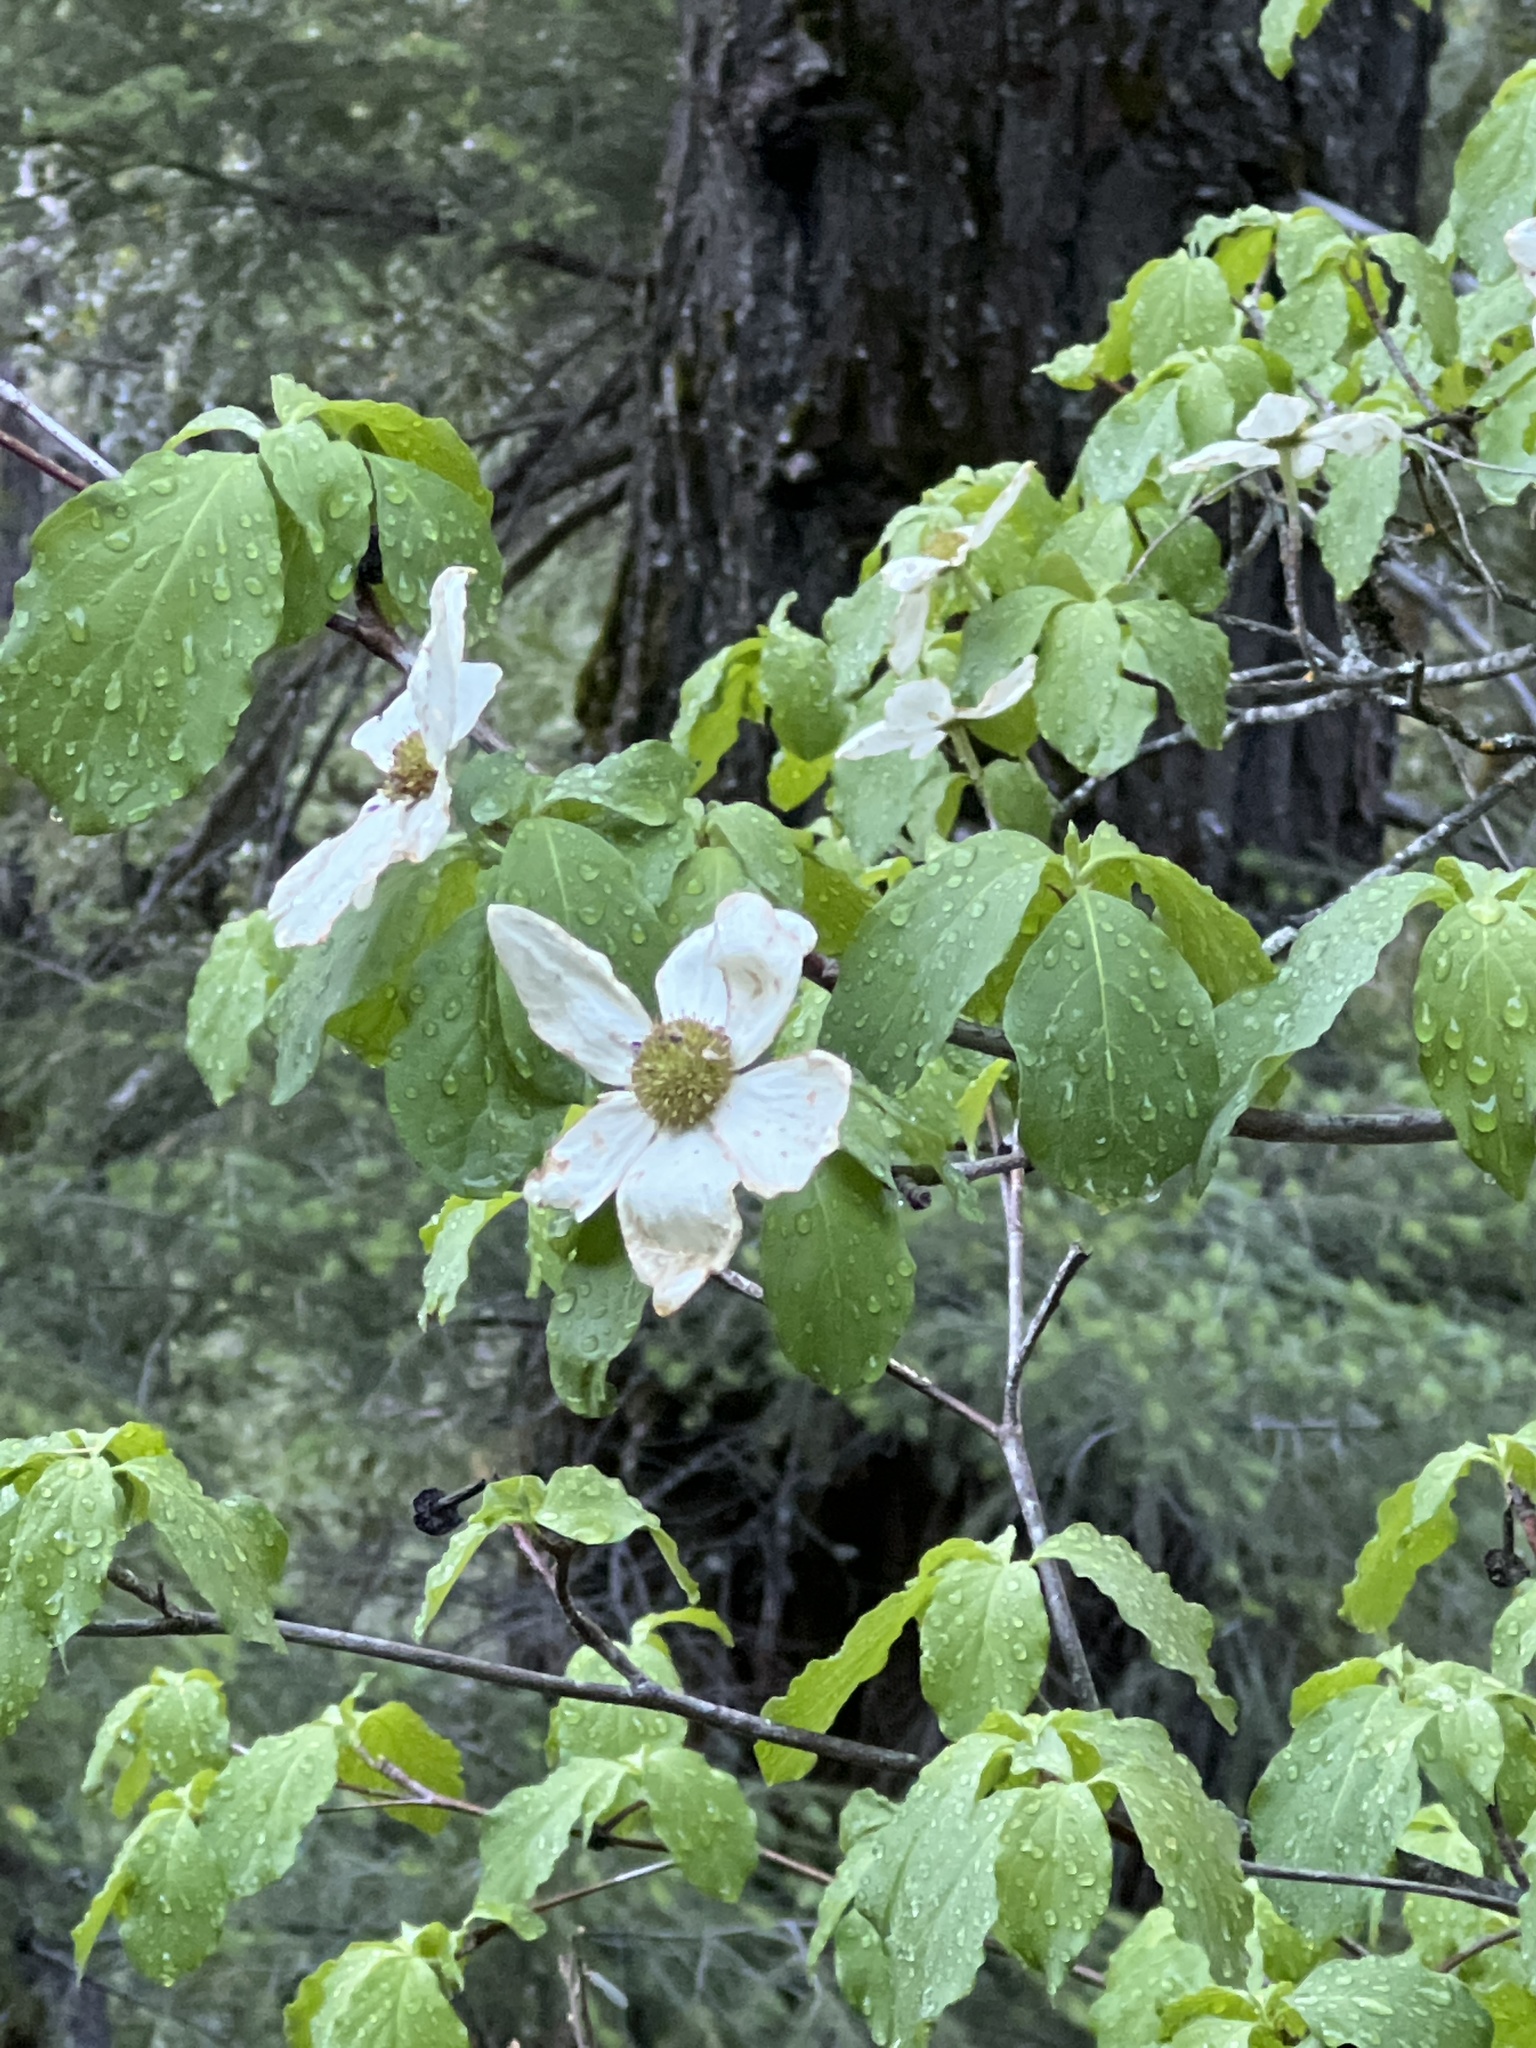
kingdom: Plantae
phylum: Tracheophyta
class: Magnoliopsida
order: Cornales
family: Cornaceae
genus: Cornus
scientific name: Cornus nuttallii
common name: Pacific dogwood
